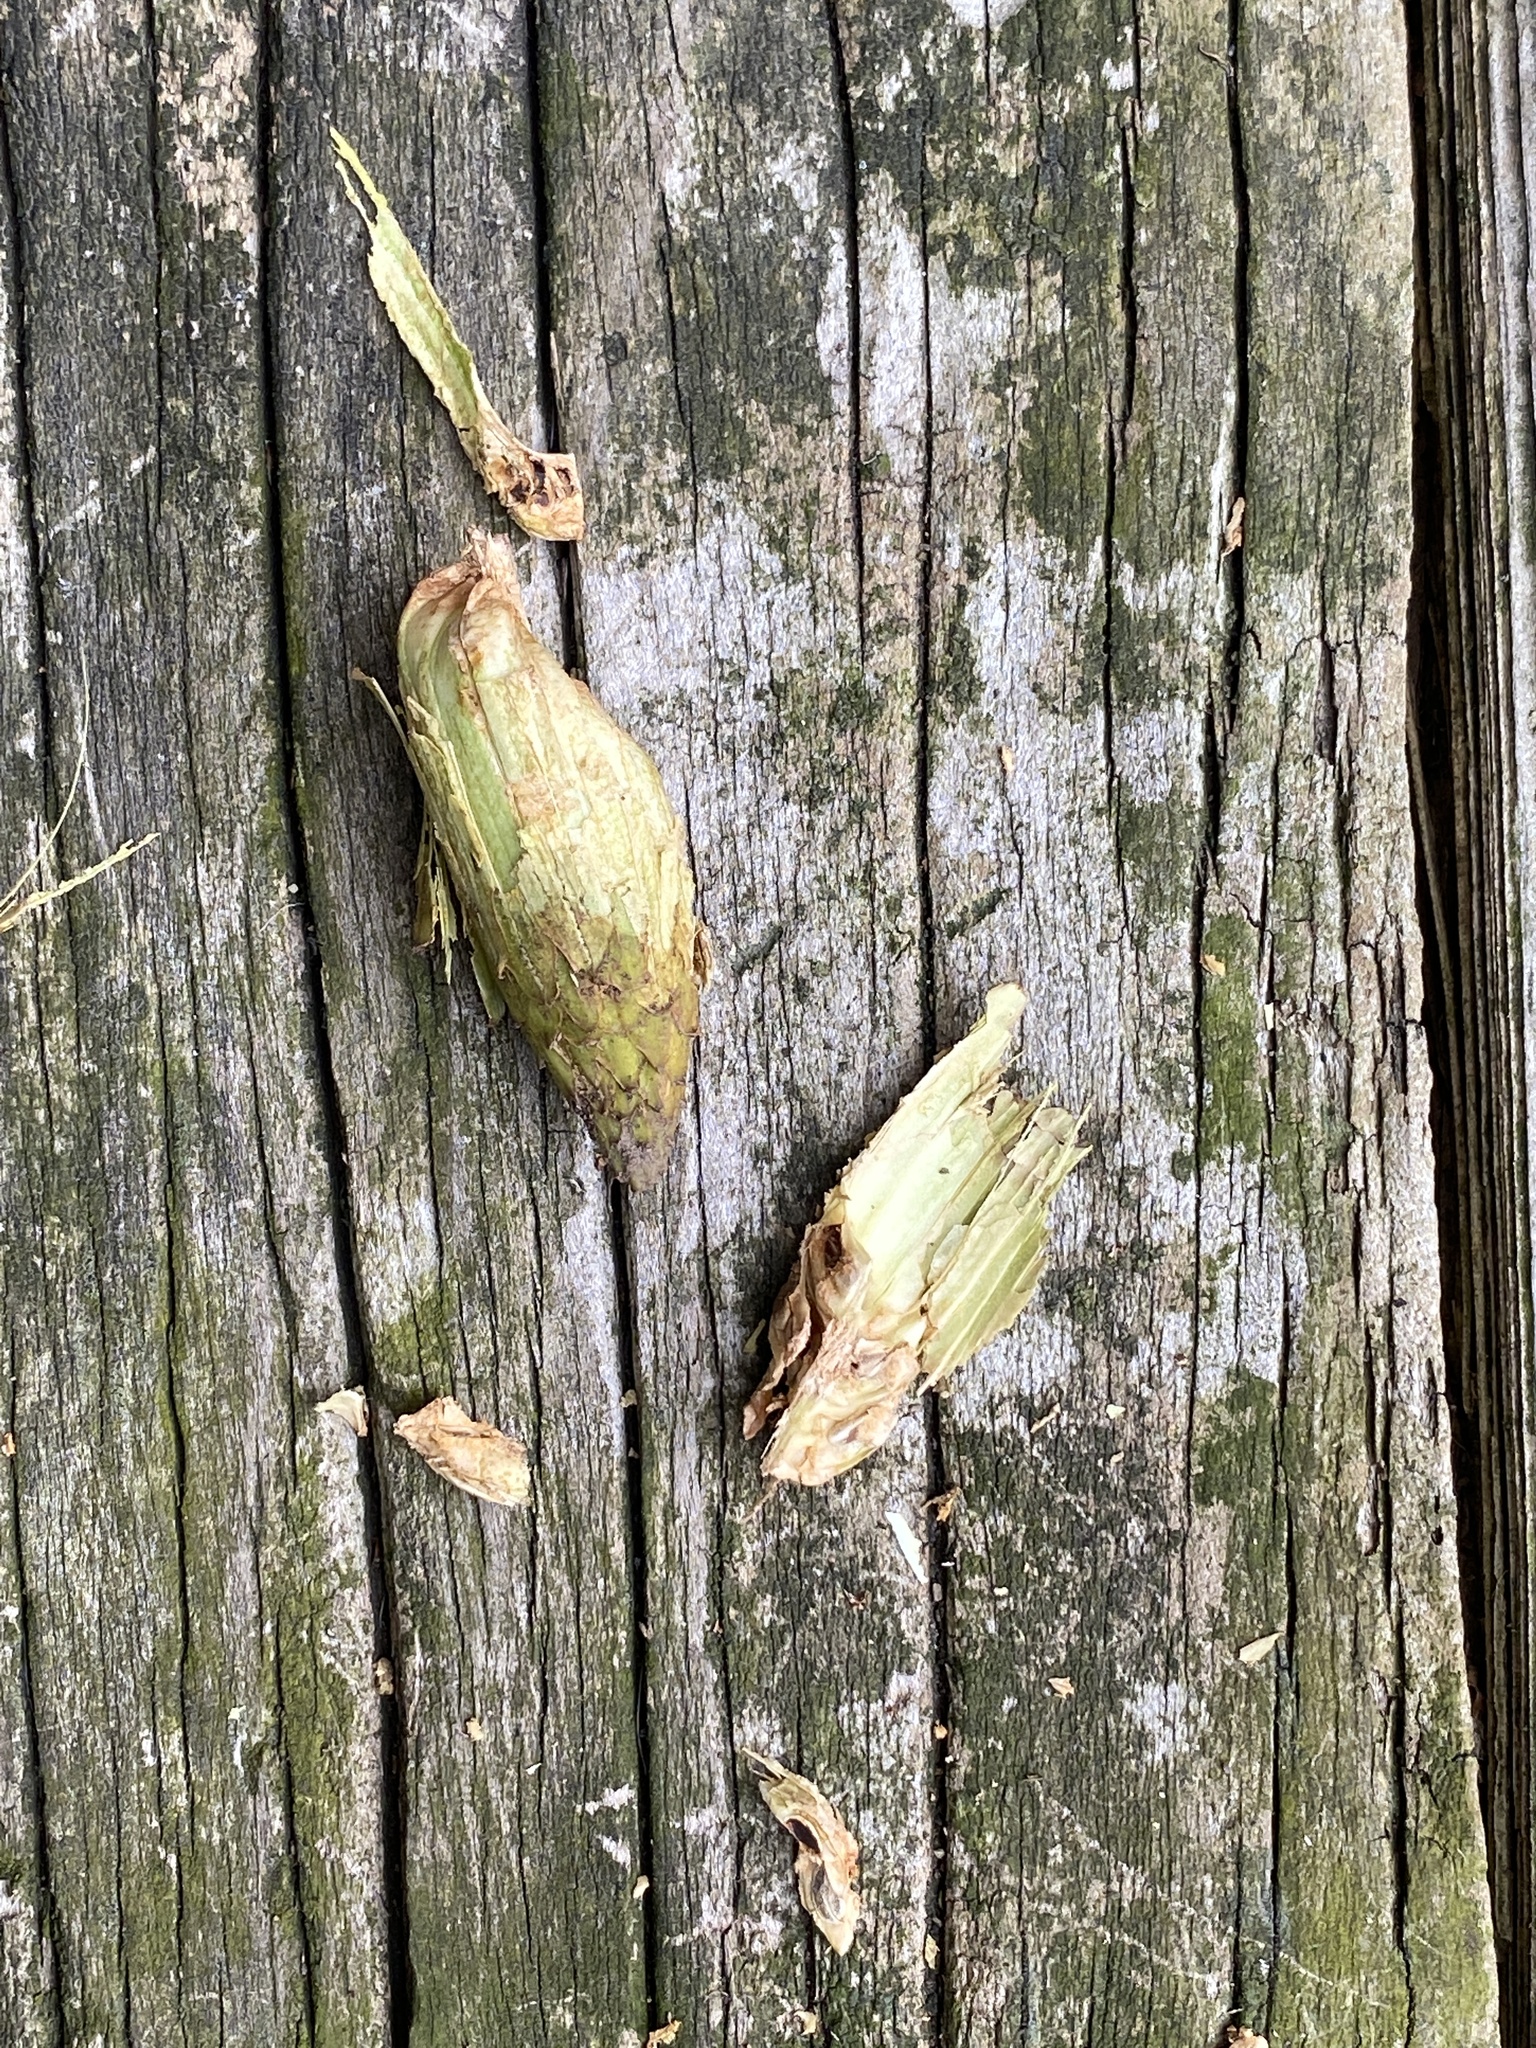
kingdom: Plantae
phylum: Tracheophyta
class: Magnoliopsida
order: Magnoliales
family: Magnoliaceae
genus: Liriodendron
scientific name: Liriodendron tulipifera
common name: Tulip tree
